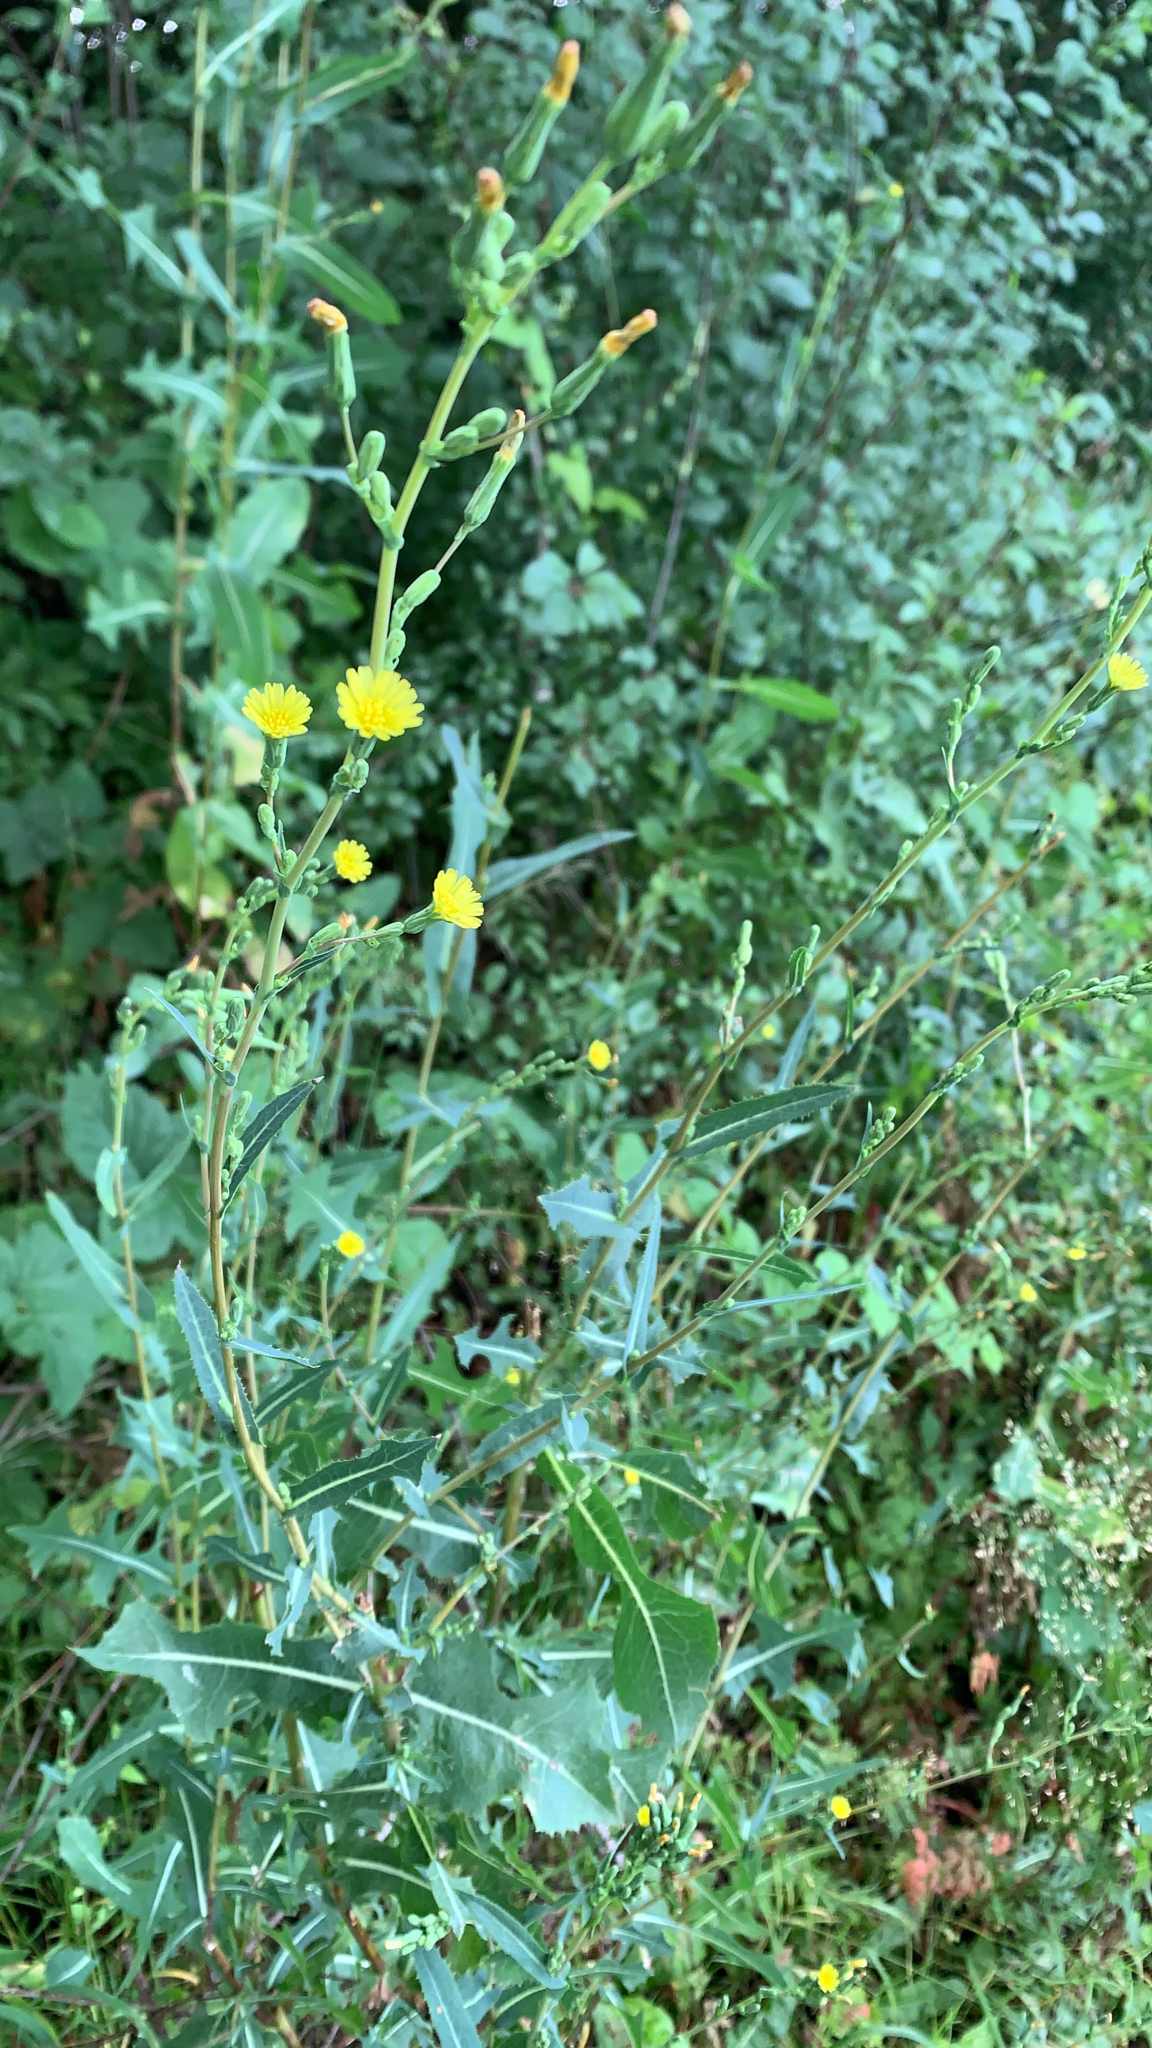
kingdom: Plantae
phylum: Tracheophyta
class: Magnoliopsida
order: Asterales
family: Asteraceae
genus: Lactuca
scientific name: Lactuca serriola
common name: Prickly lettuce
